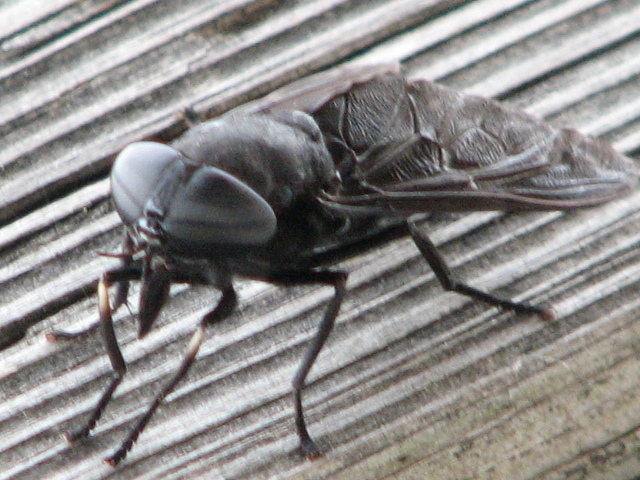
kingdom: Animalia
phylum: Arthropoda
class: Insecta
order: Diptera
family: Tabanidae
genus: Tabanus
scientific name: Tabanus atratus
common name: Black horse fly
